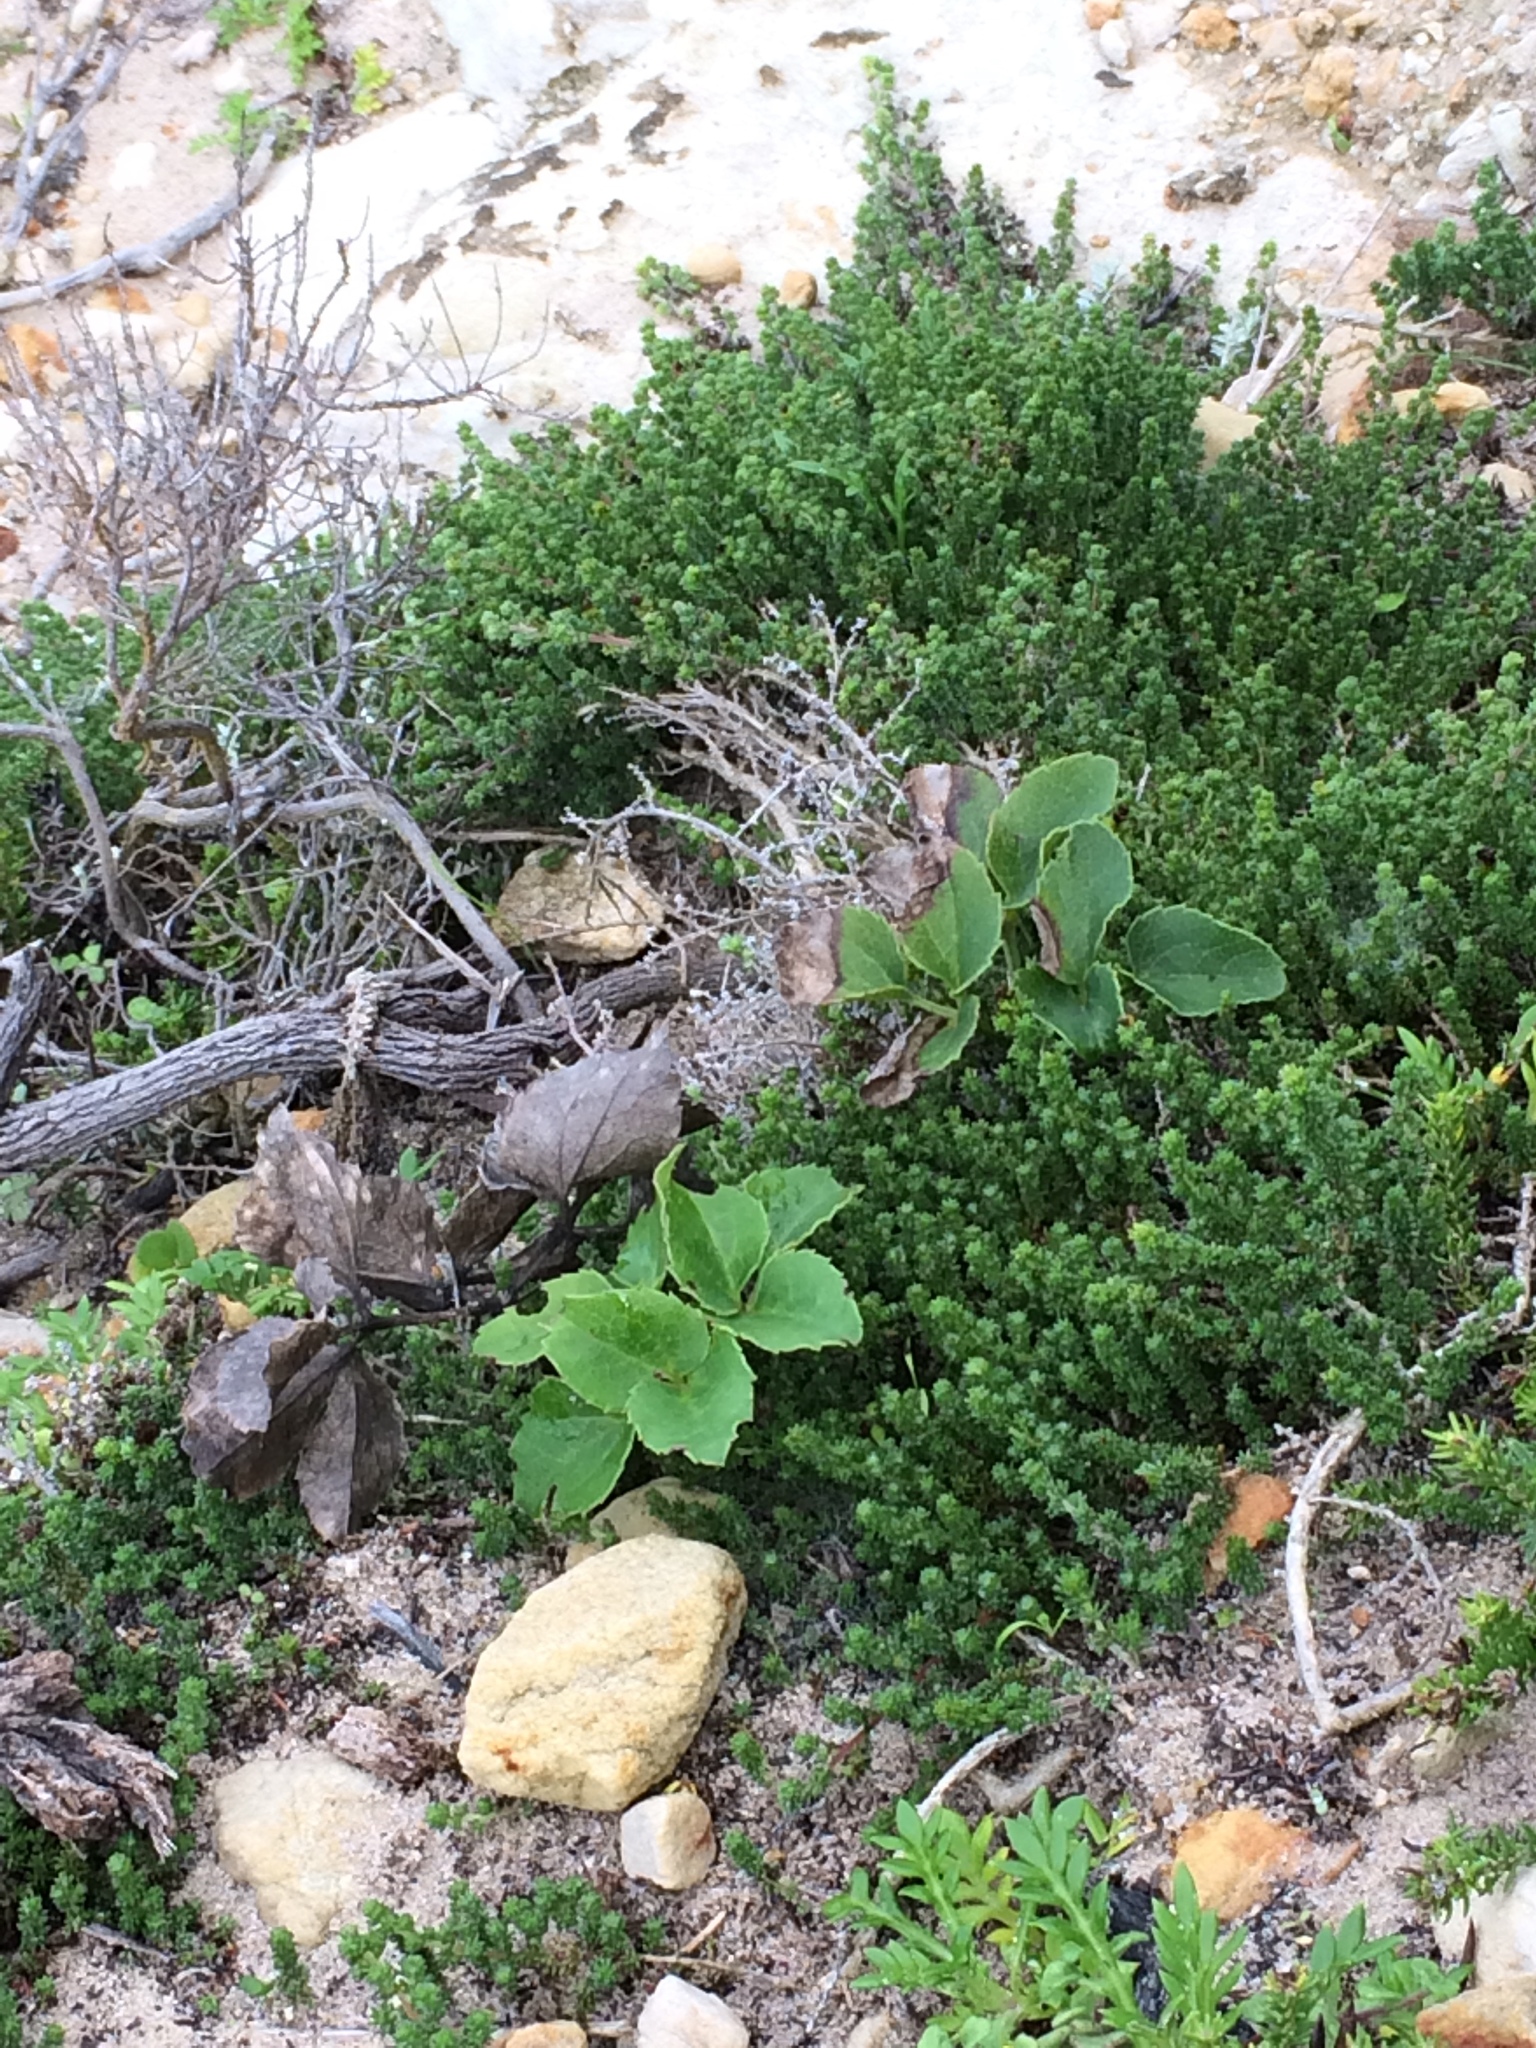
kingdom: Plantae
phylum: Tracheophyta
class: Magnoliopsida
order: Ranunculales
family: Ranunculaceae
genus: Knowltonia
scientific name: Knowltonia vesicatoria
